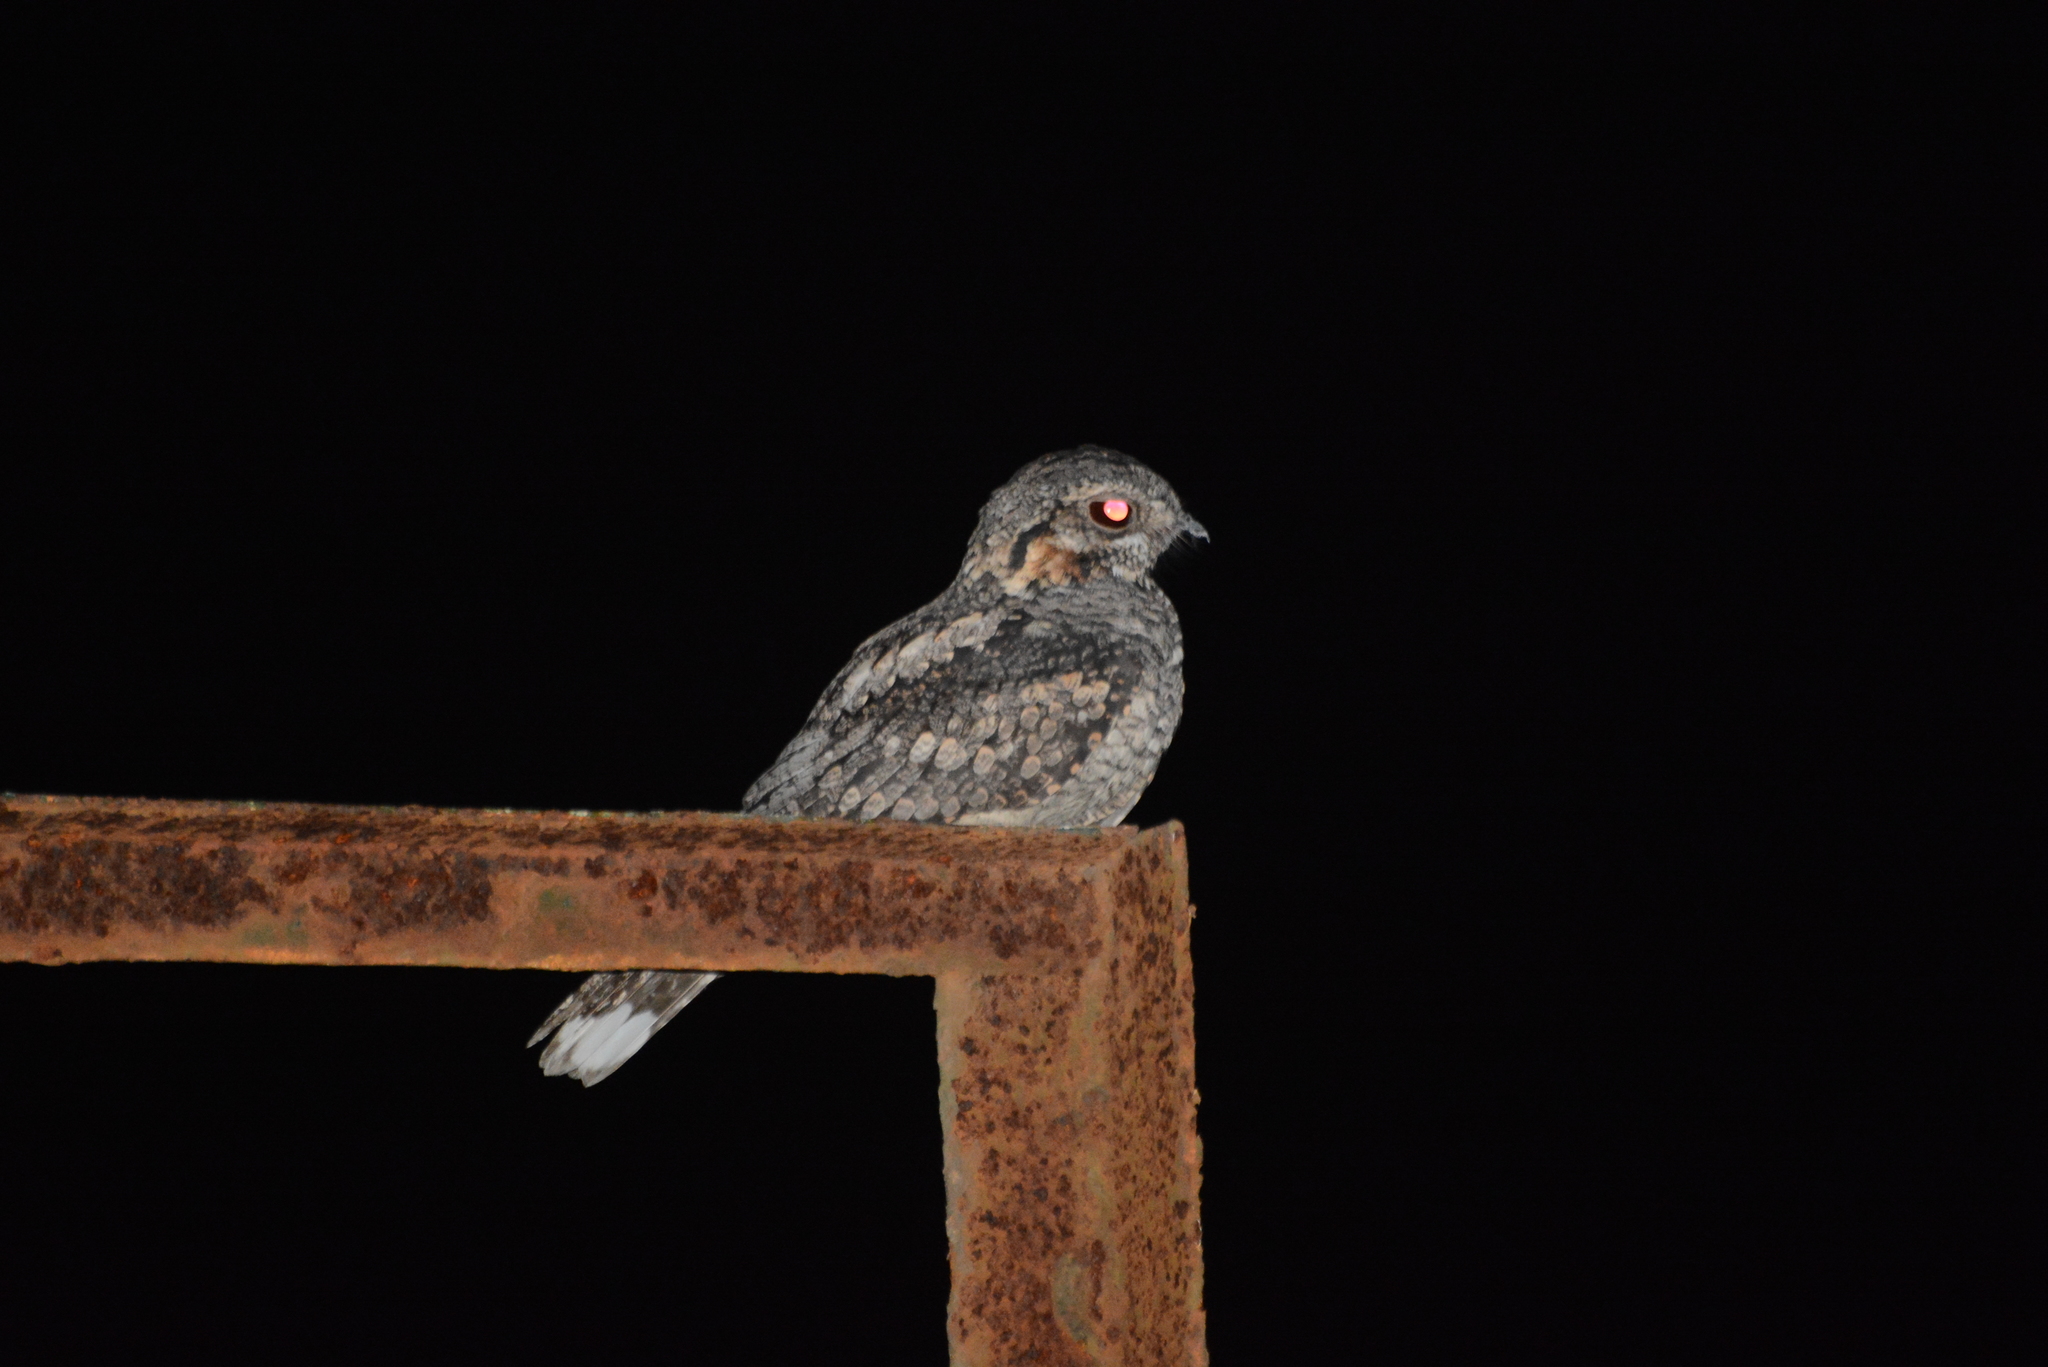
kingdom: Animalia
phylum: Chordata
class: Aves
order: Caprimulgiformes
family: Caprimulgidae
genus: Caprimulgus
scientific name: Caprimulgus indicus
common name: Jungle nightjar
